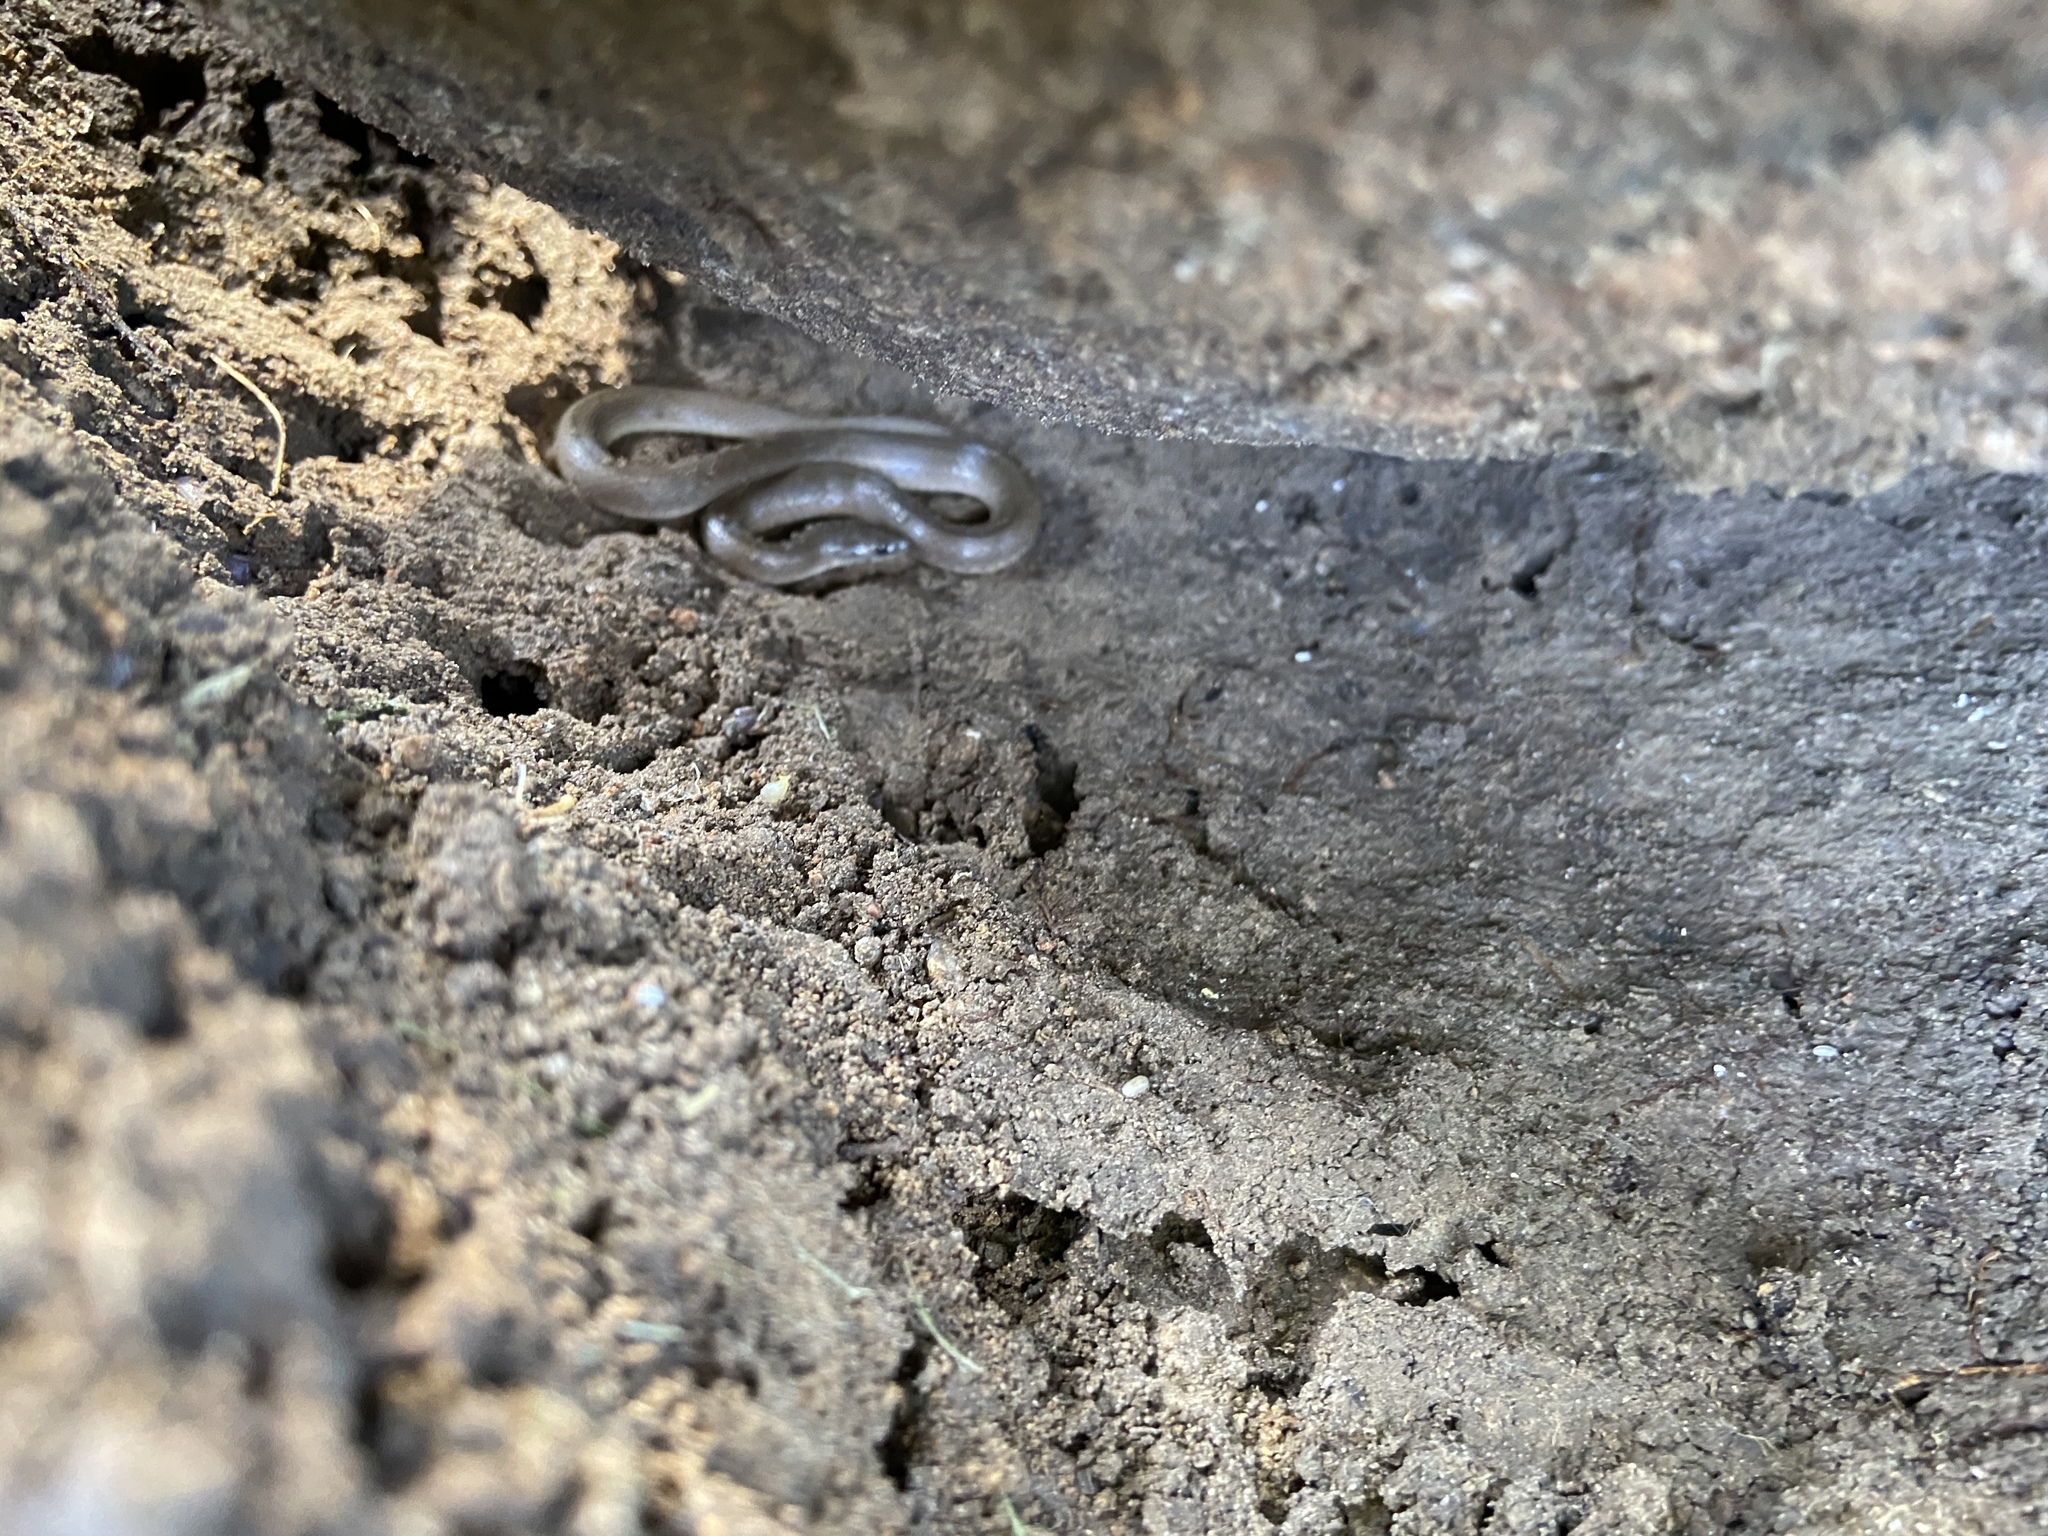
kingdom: Animalia
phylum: Chordata
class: Squamata
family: Colubridae
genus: Haldea
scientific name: Haldea striatula
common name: Rough earth snake
